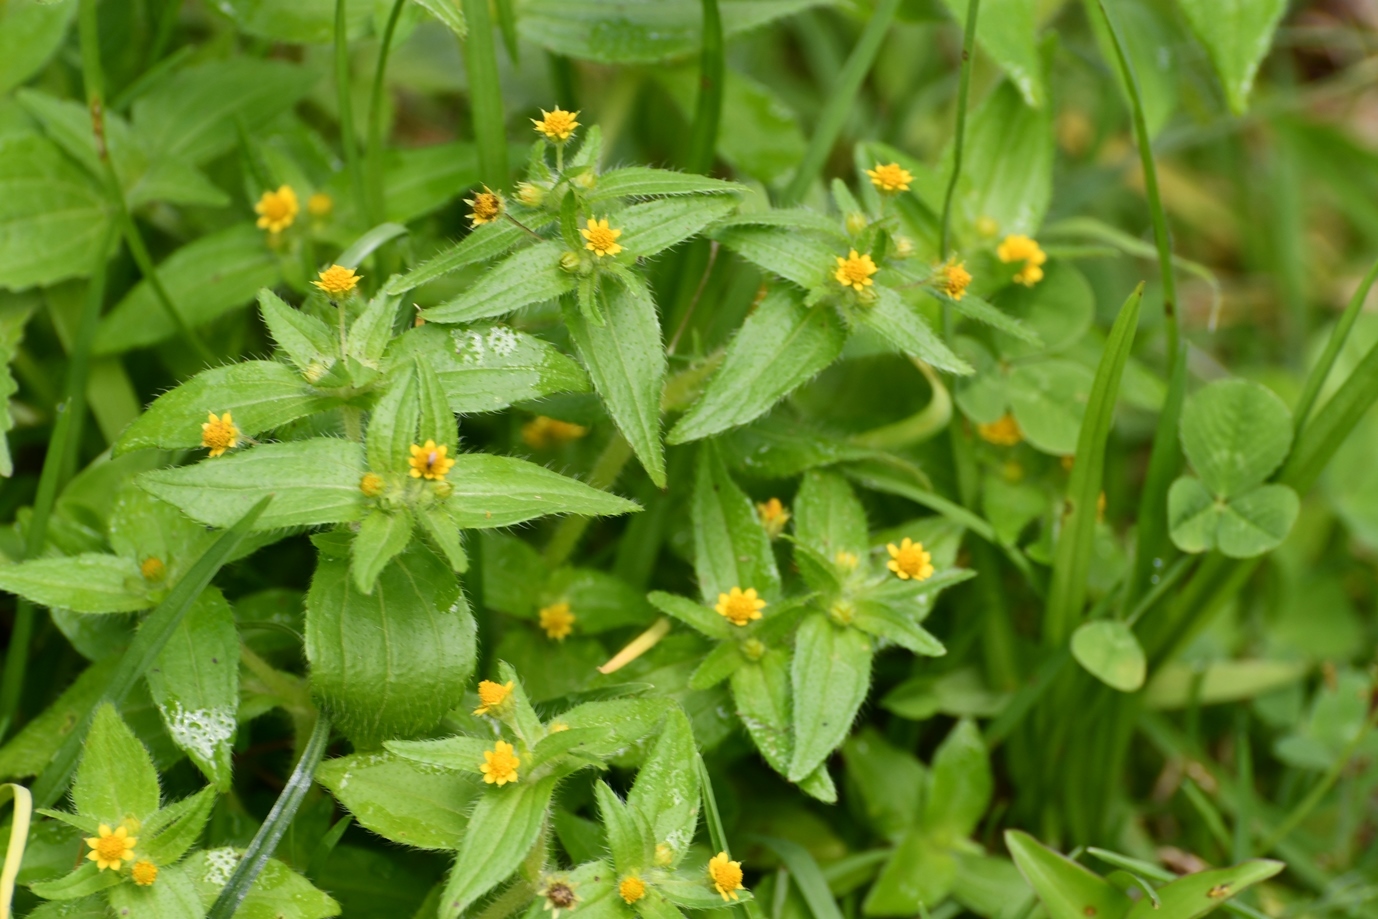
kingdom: Plantae
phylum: Tracheophyta
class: Magnoliopsida
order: Asterales
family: Asteraceae
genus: Jaegeria
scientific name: Jaegeria hirta
